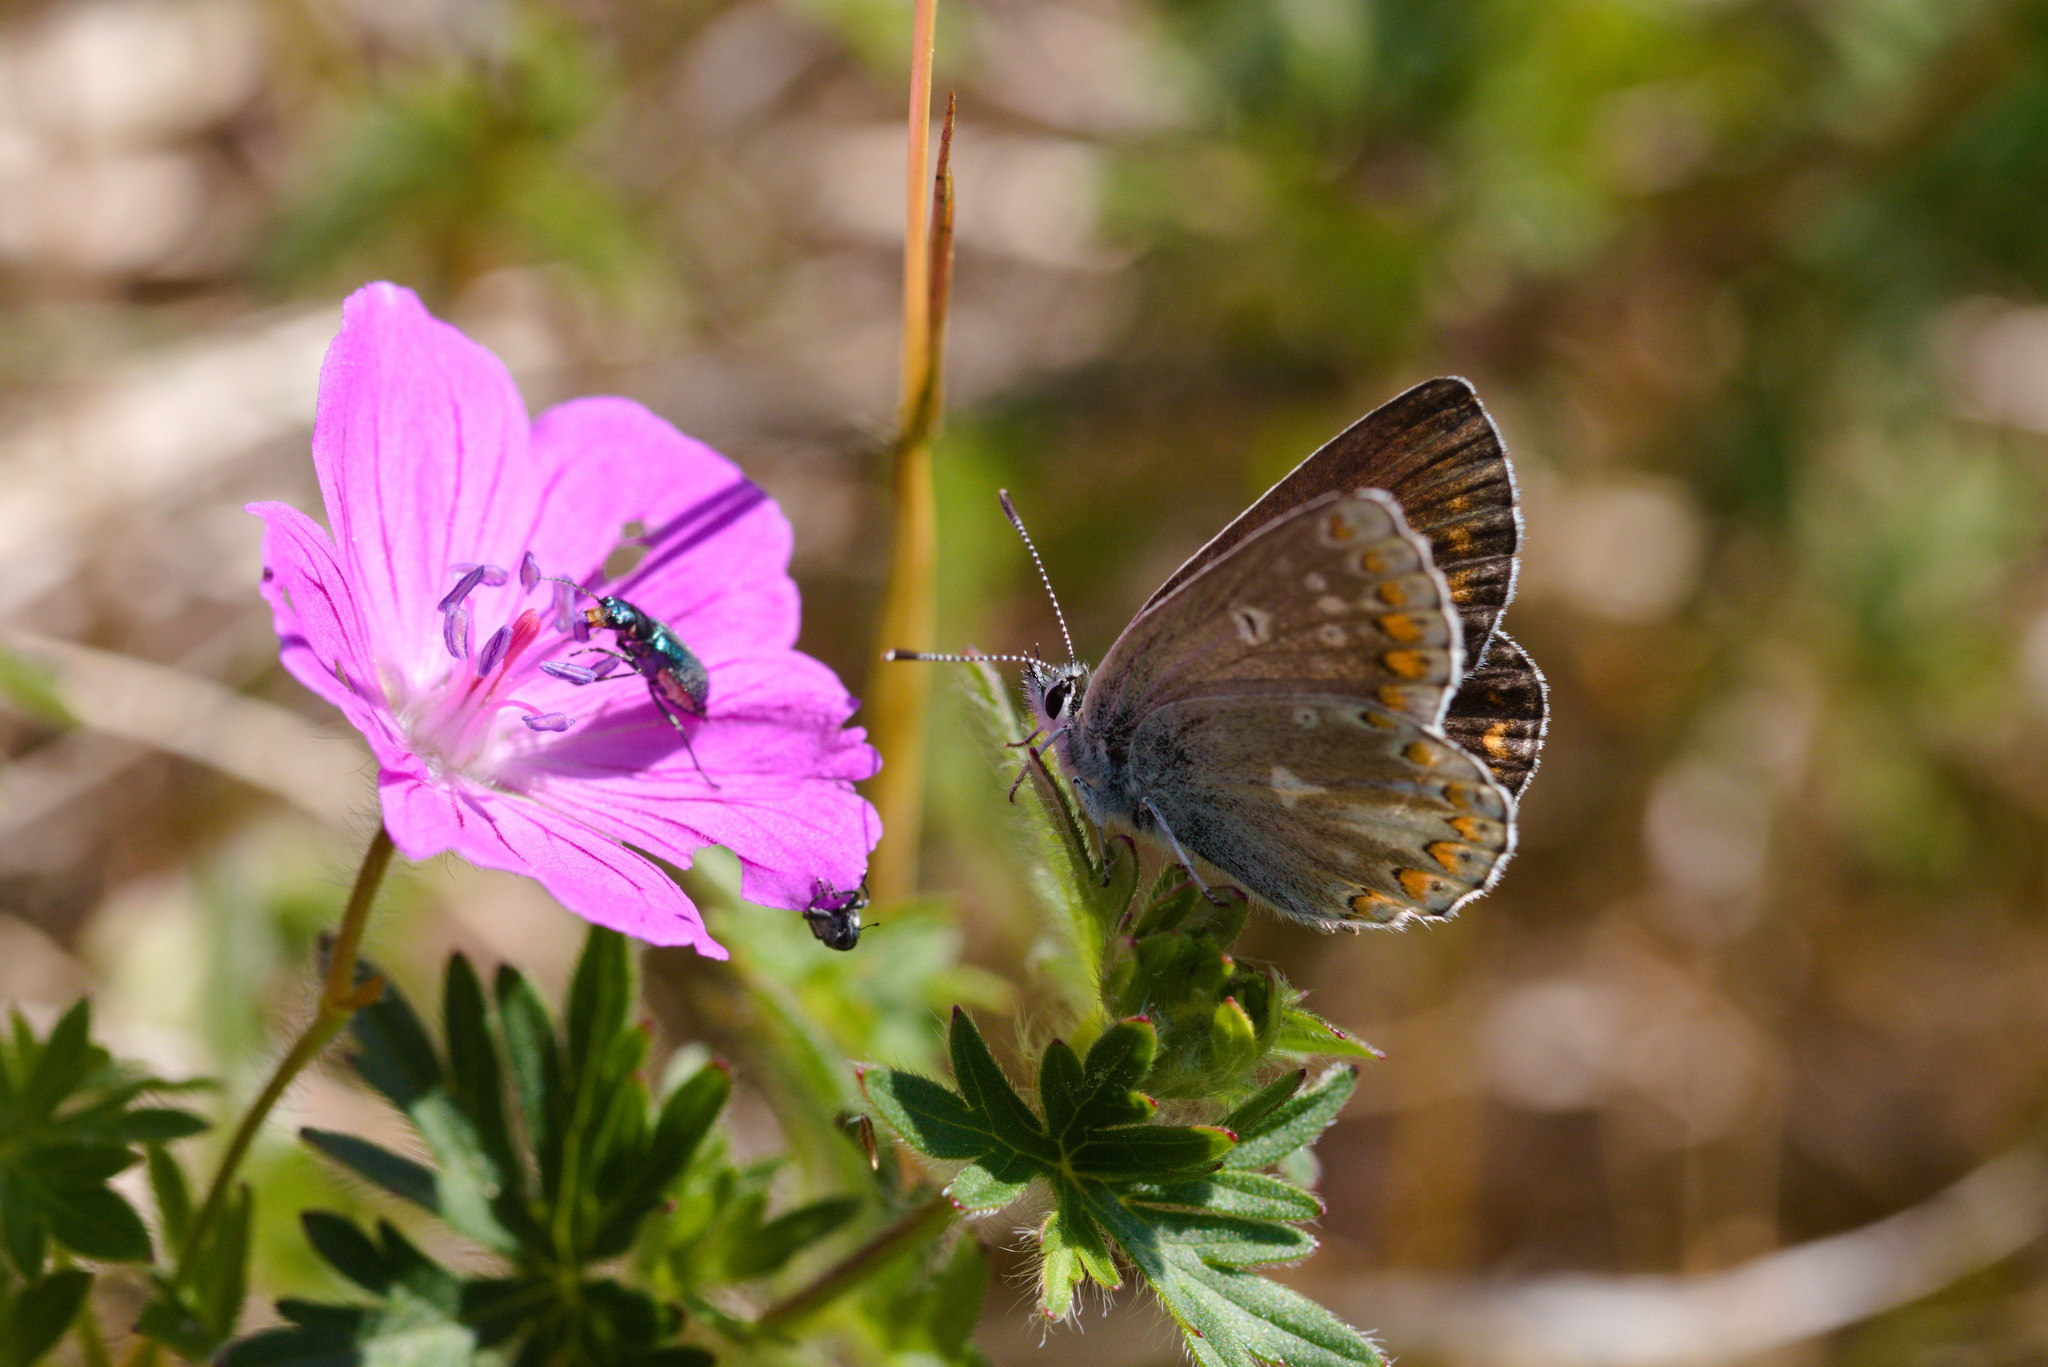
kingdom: Animalia
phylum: Arthropoda
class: Insecta
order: Lepidoptera
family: Lycaenidae
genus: Aricia
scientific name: Aricia artaxerxes
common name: Northern brown argus
